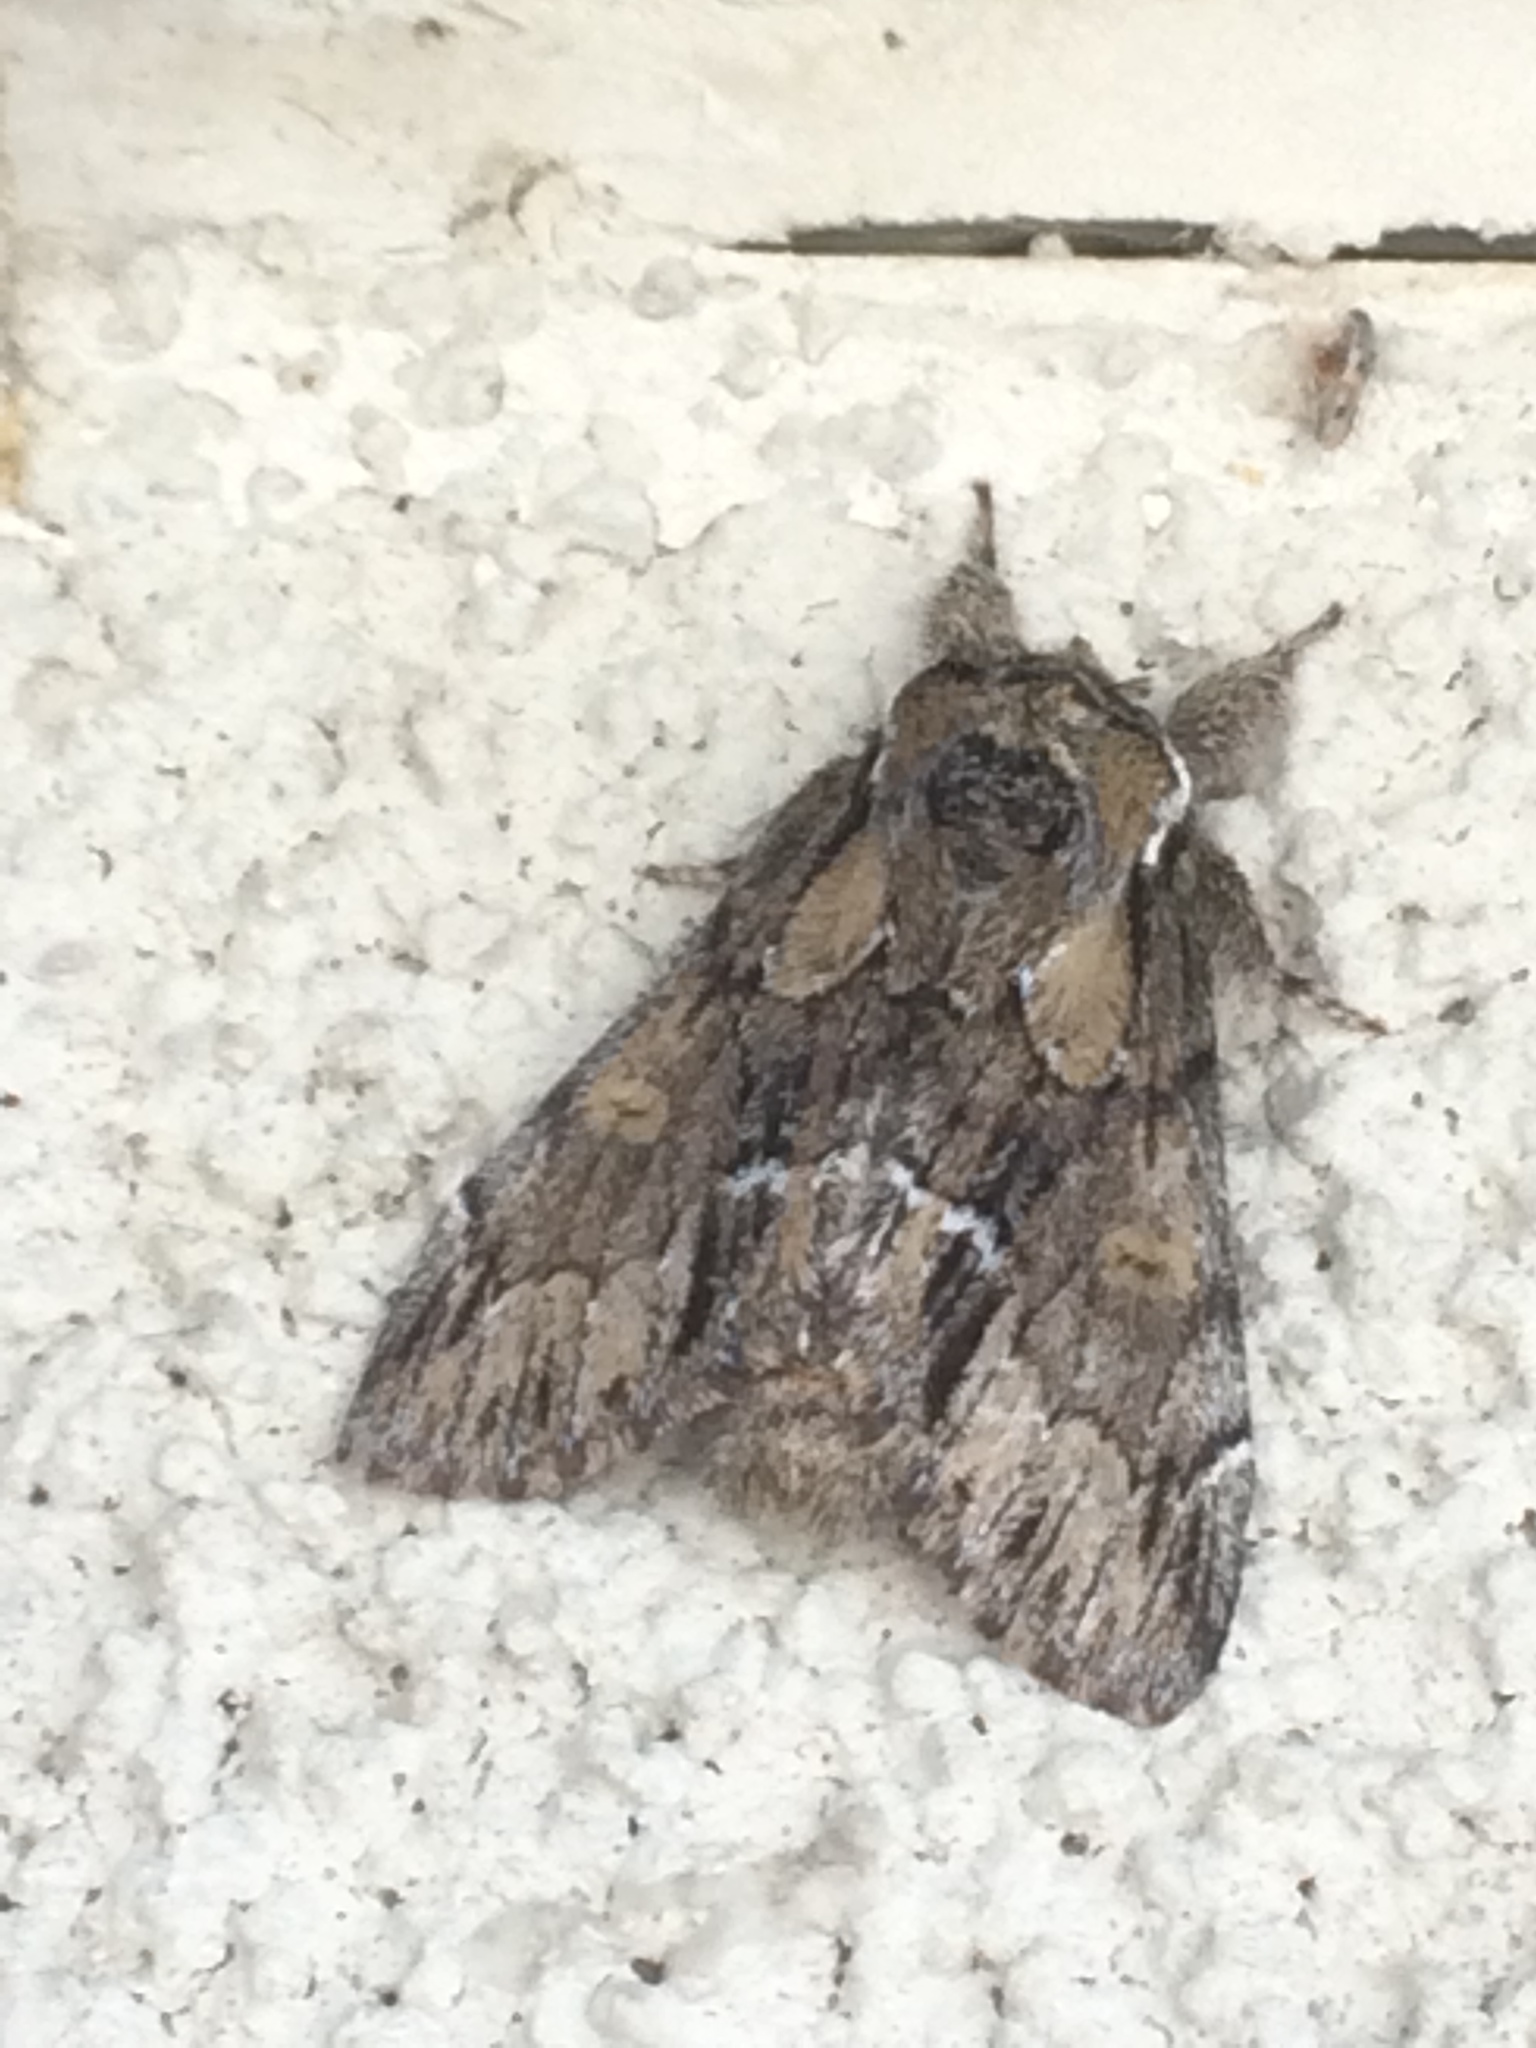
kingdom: Animalia
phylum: Arthropoda
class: Insecta
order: Lepidoptera
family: Notodontidae
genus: Paraeschra
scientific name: Paraeschra georgica
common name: Georgian prominent
